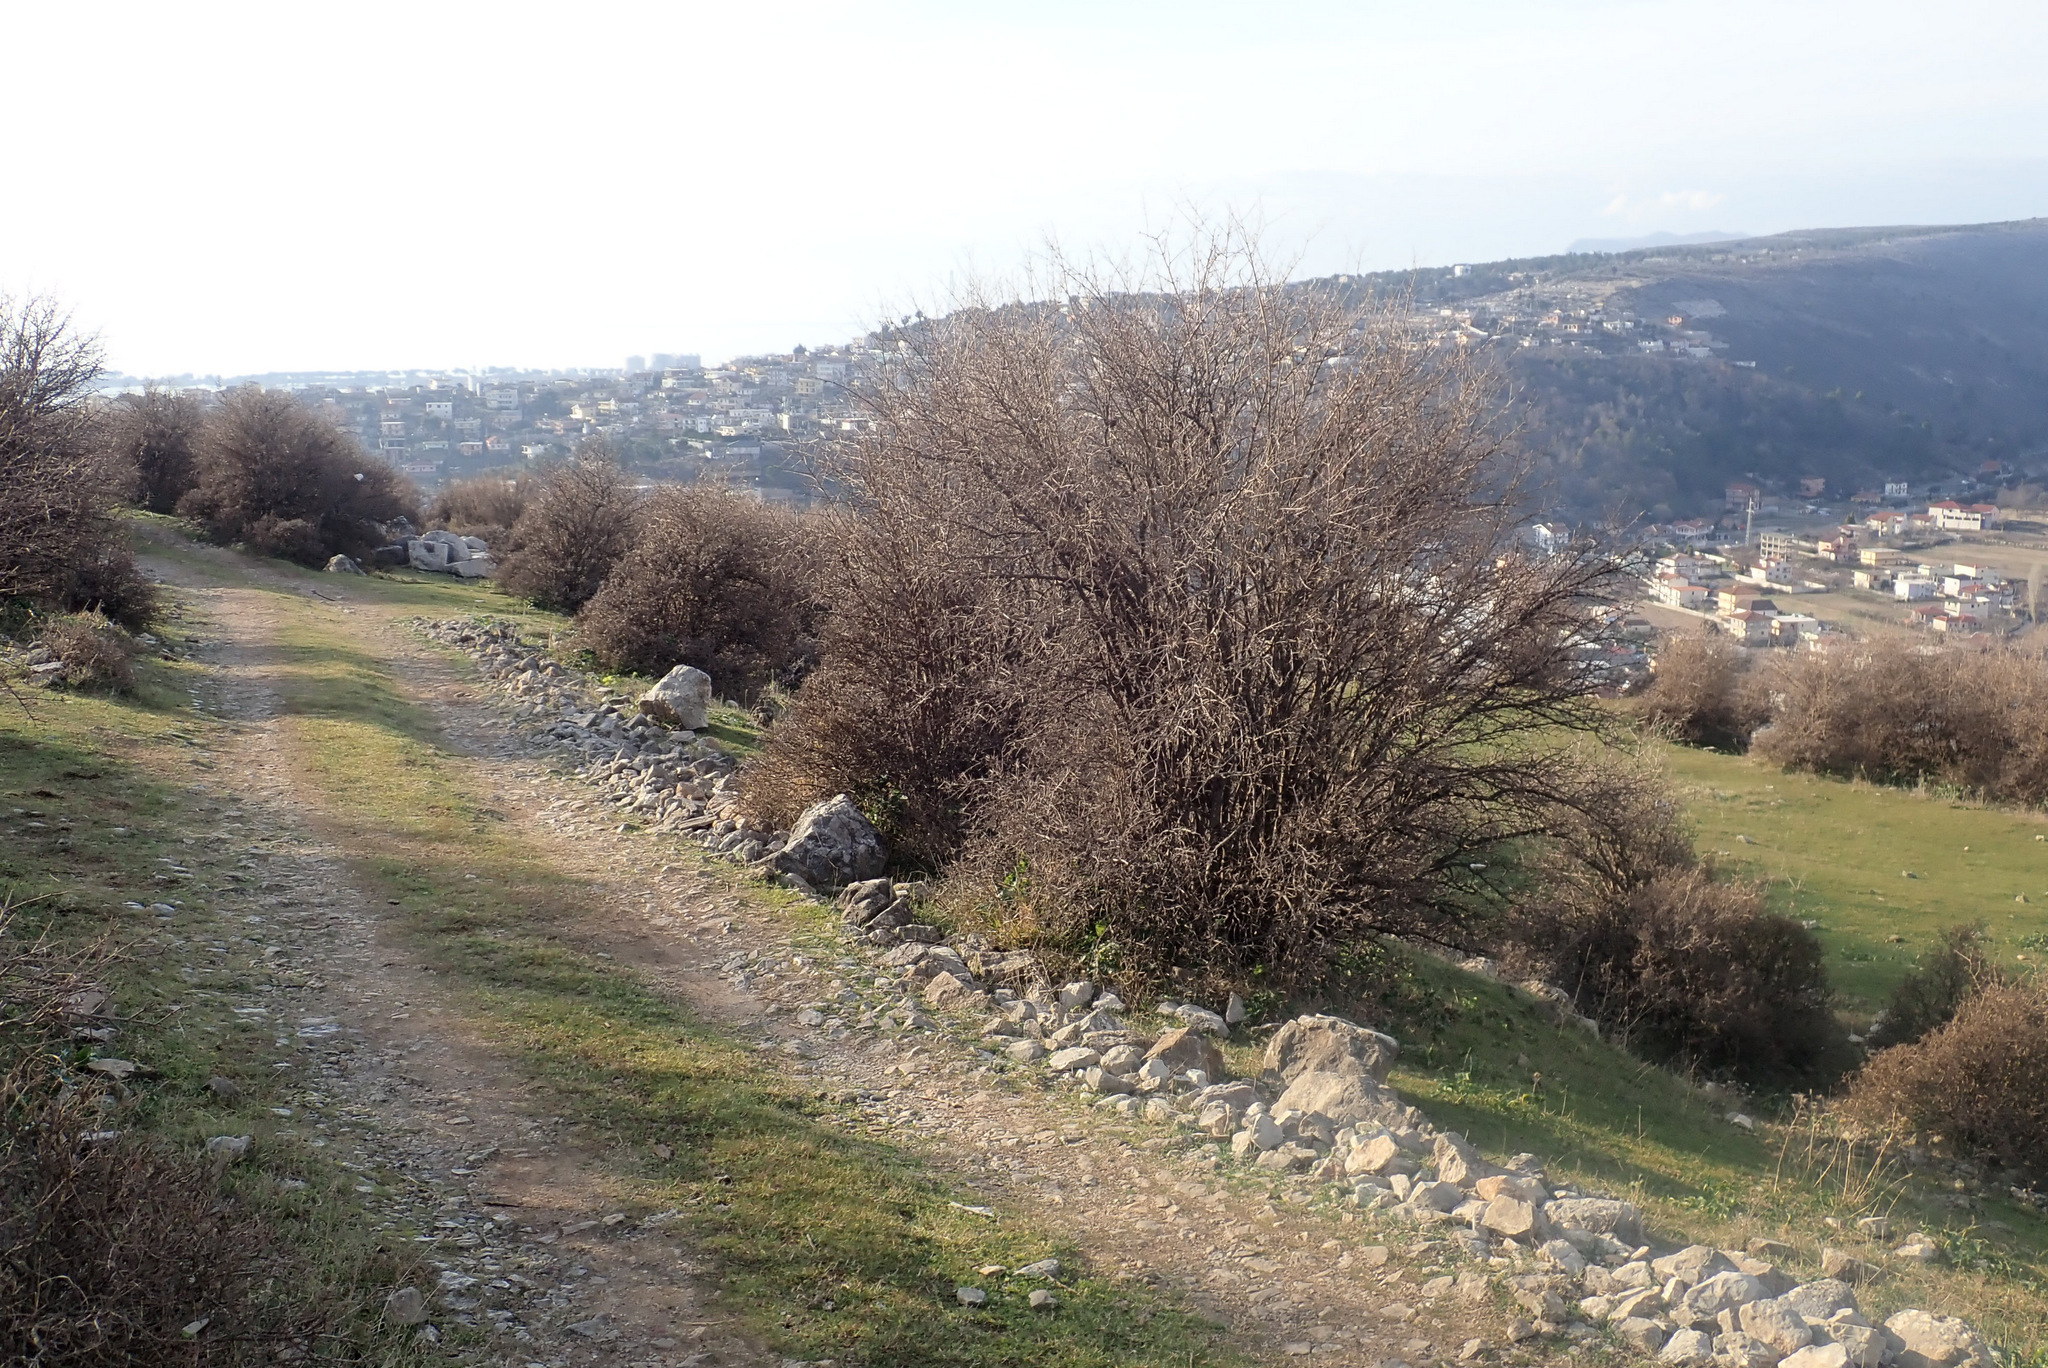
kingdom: Plantae
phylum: Tracheophyta
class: Magnoliopsida
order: Myrtales
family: Lythraceae
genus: Punica
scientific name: Punica granatum
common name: Pomegranate
